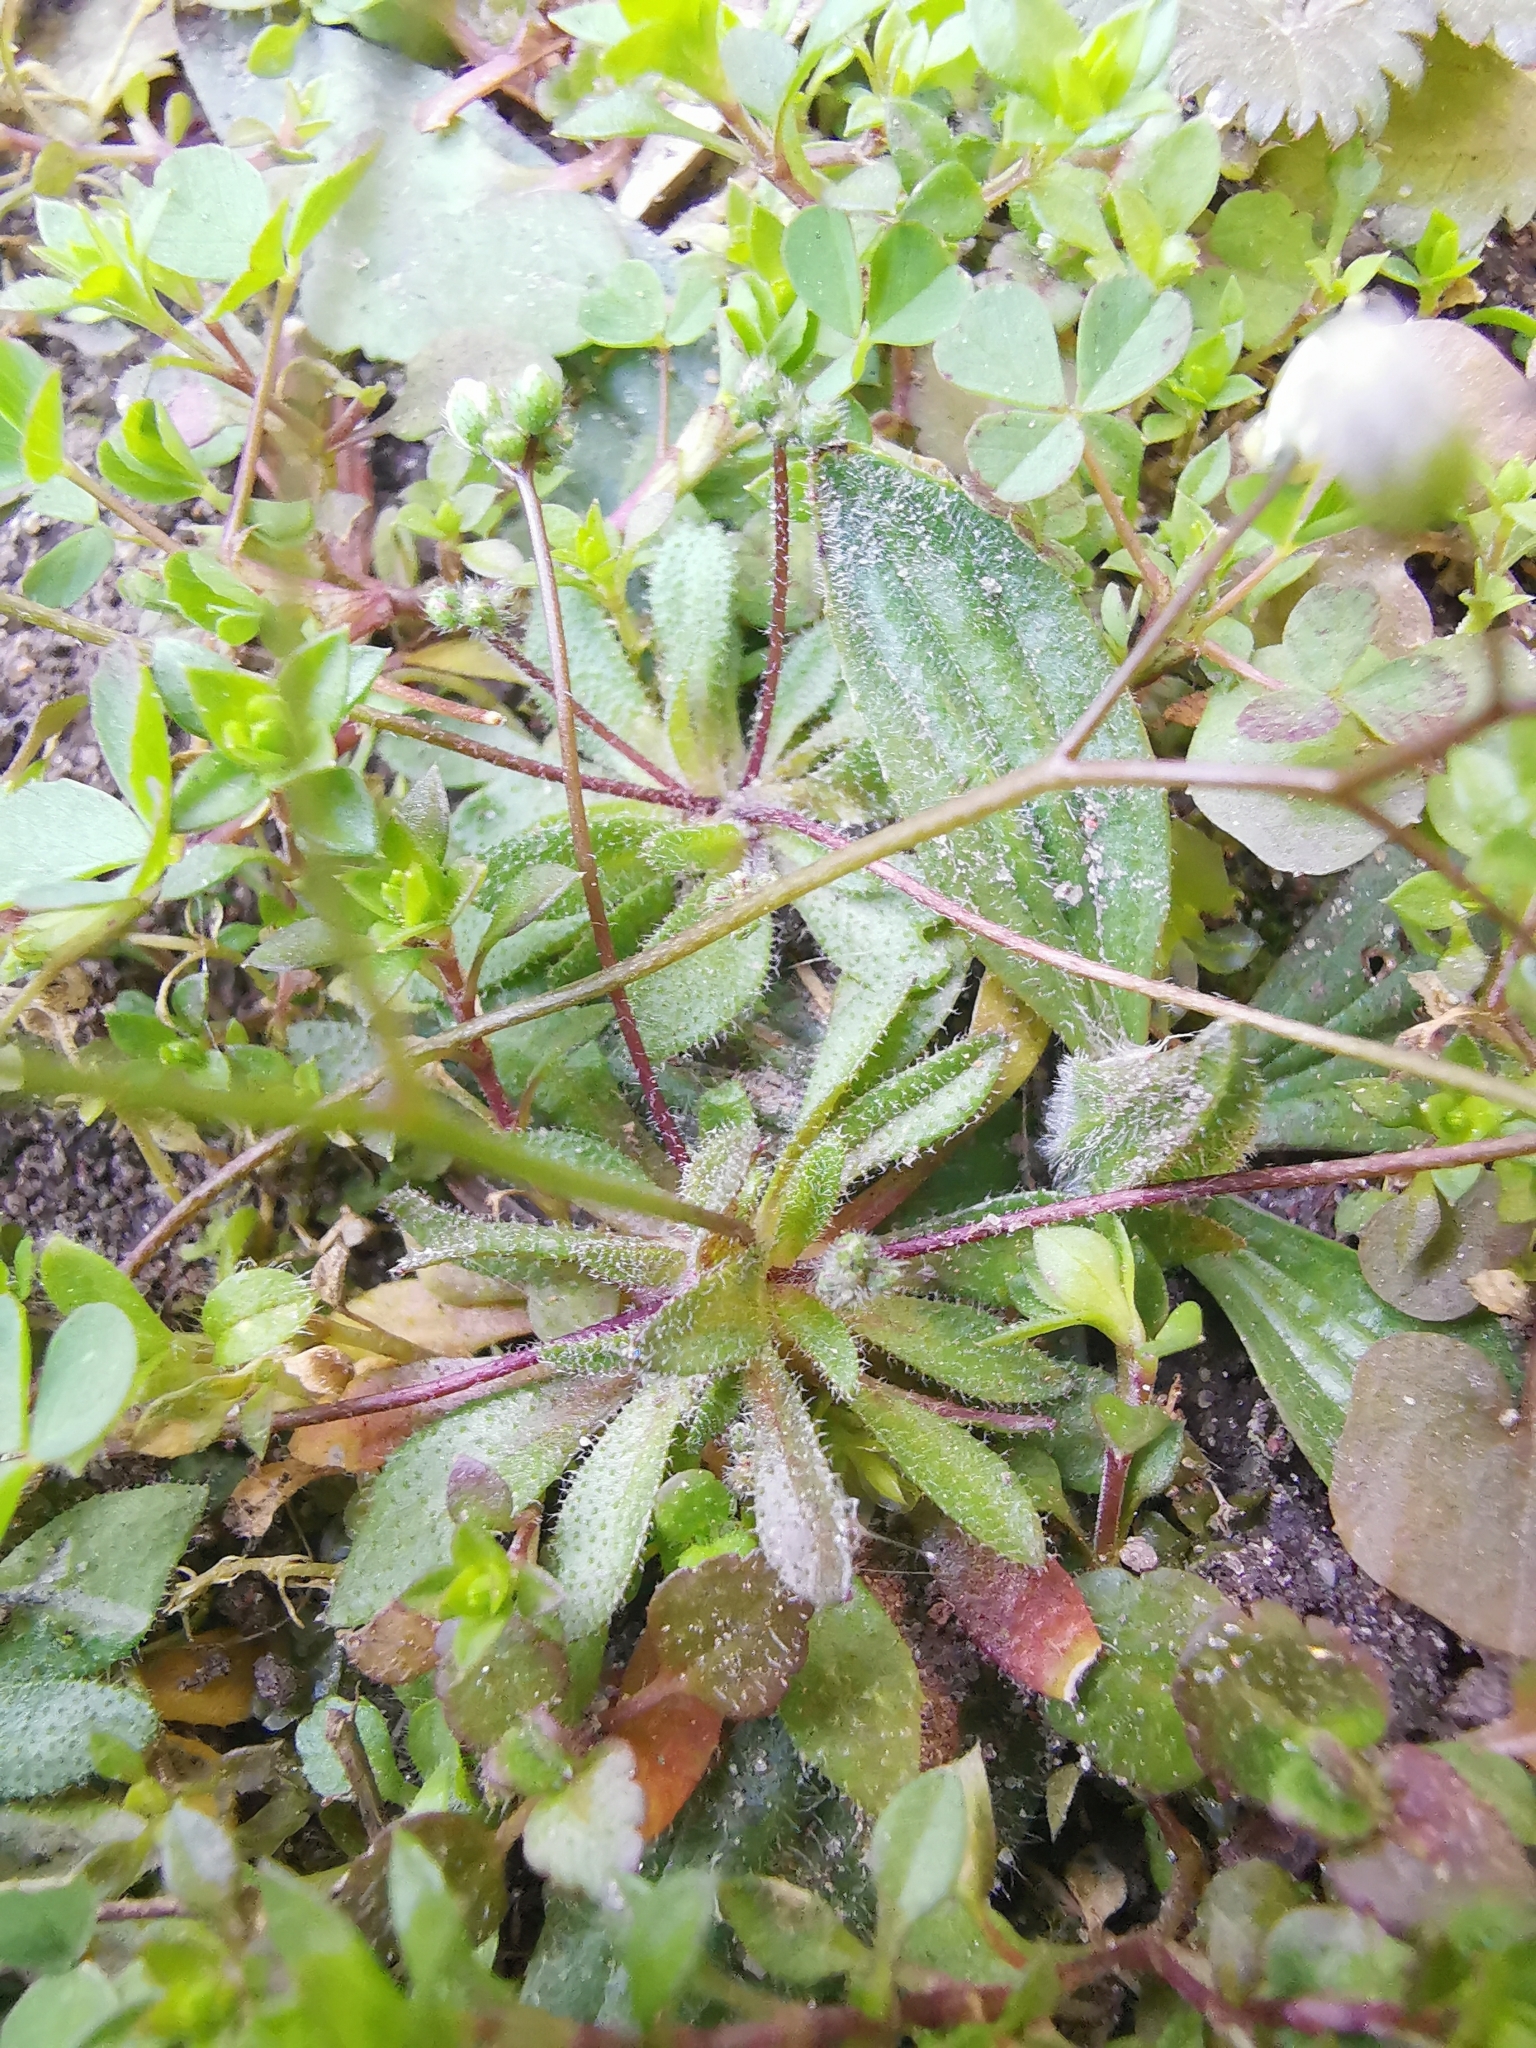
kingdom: Plantae
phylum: Tracheophyta
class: Magnoliopsida
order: Brassicales
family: Brassicaceae
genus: Draba
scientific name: Draba verna
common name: Spring draba
